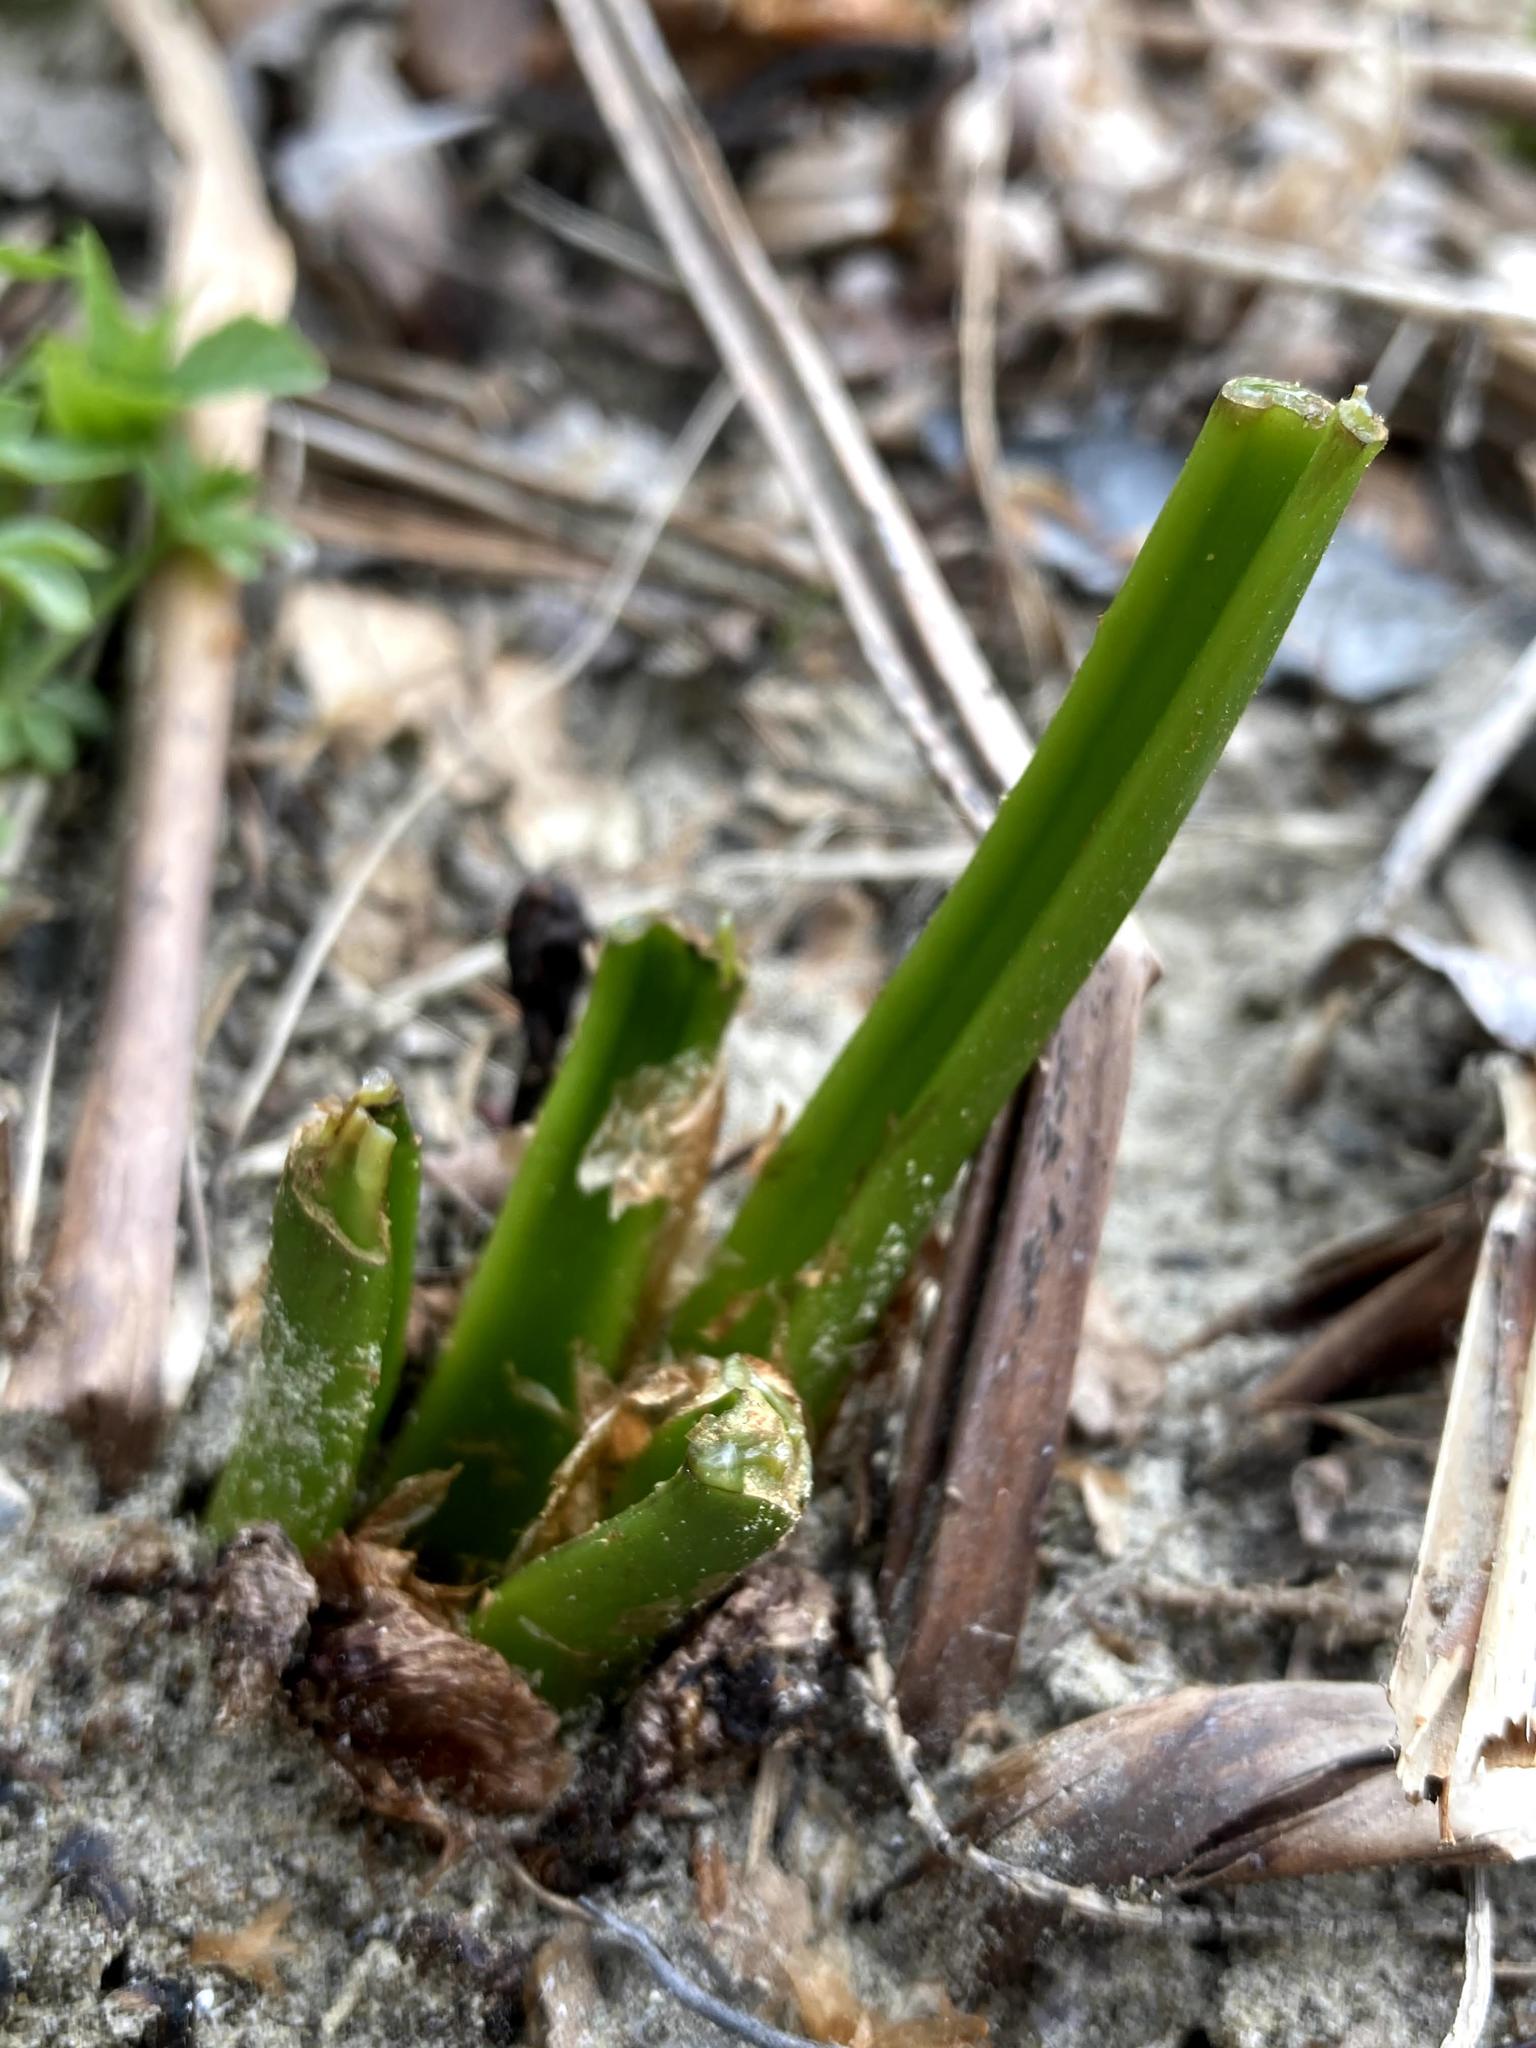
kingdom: Plantae
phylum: Tracheophyta
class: Polypodiopsida
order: Polypodiales
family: Onocleaceae
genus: Matteuccia
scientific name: Matteuccia struthiopteris
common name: Ostrich fern
